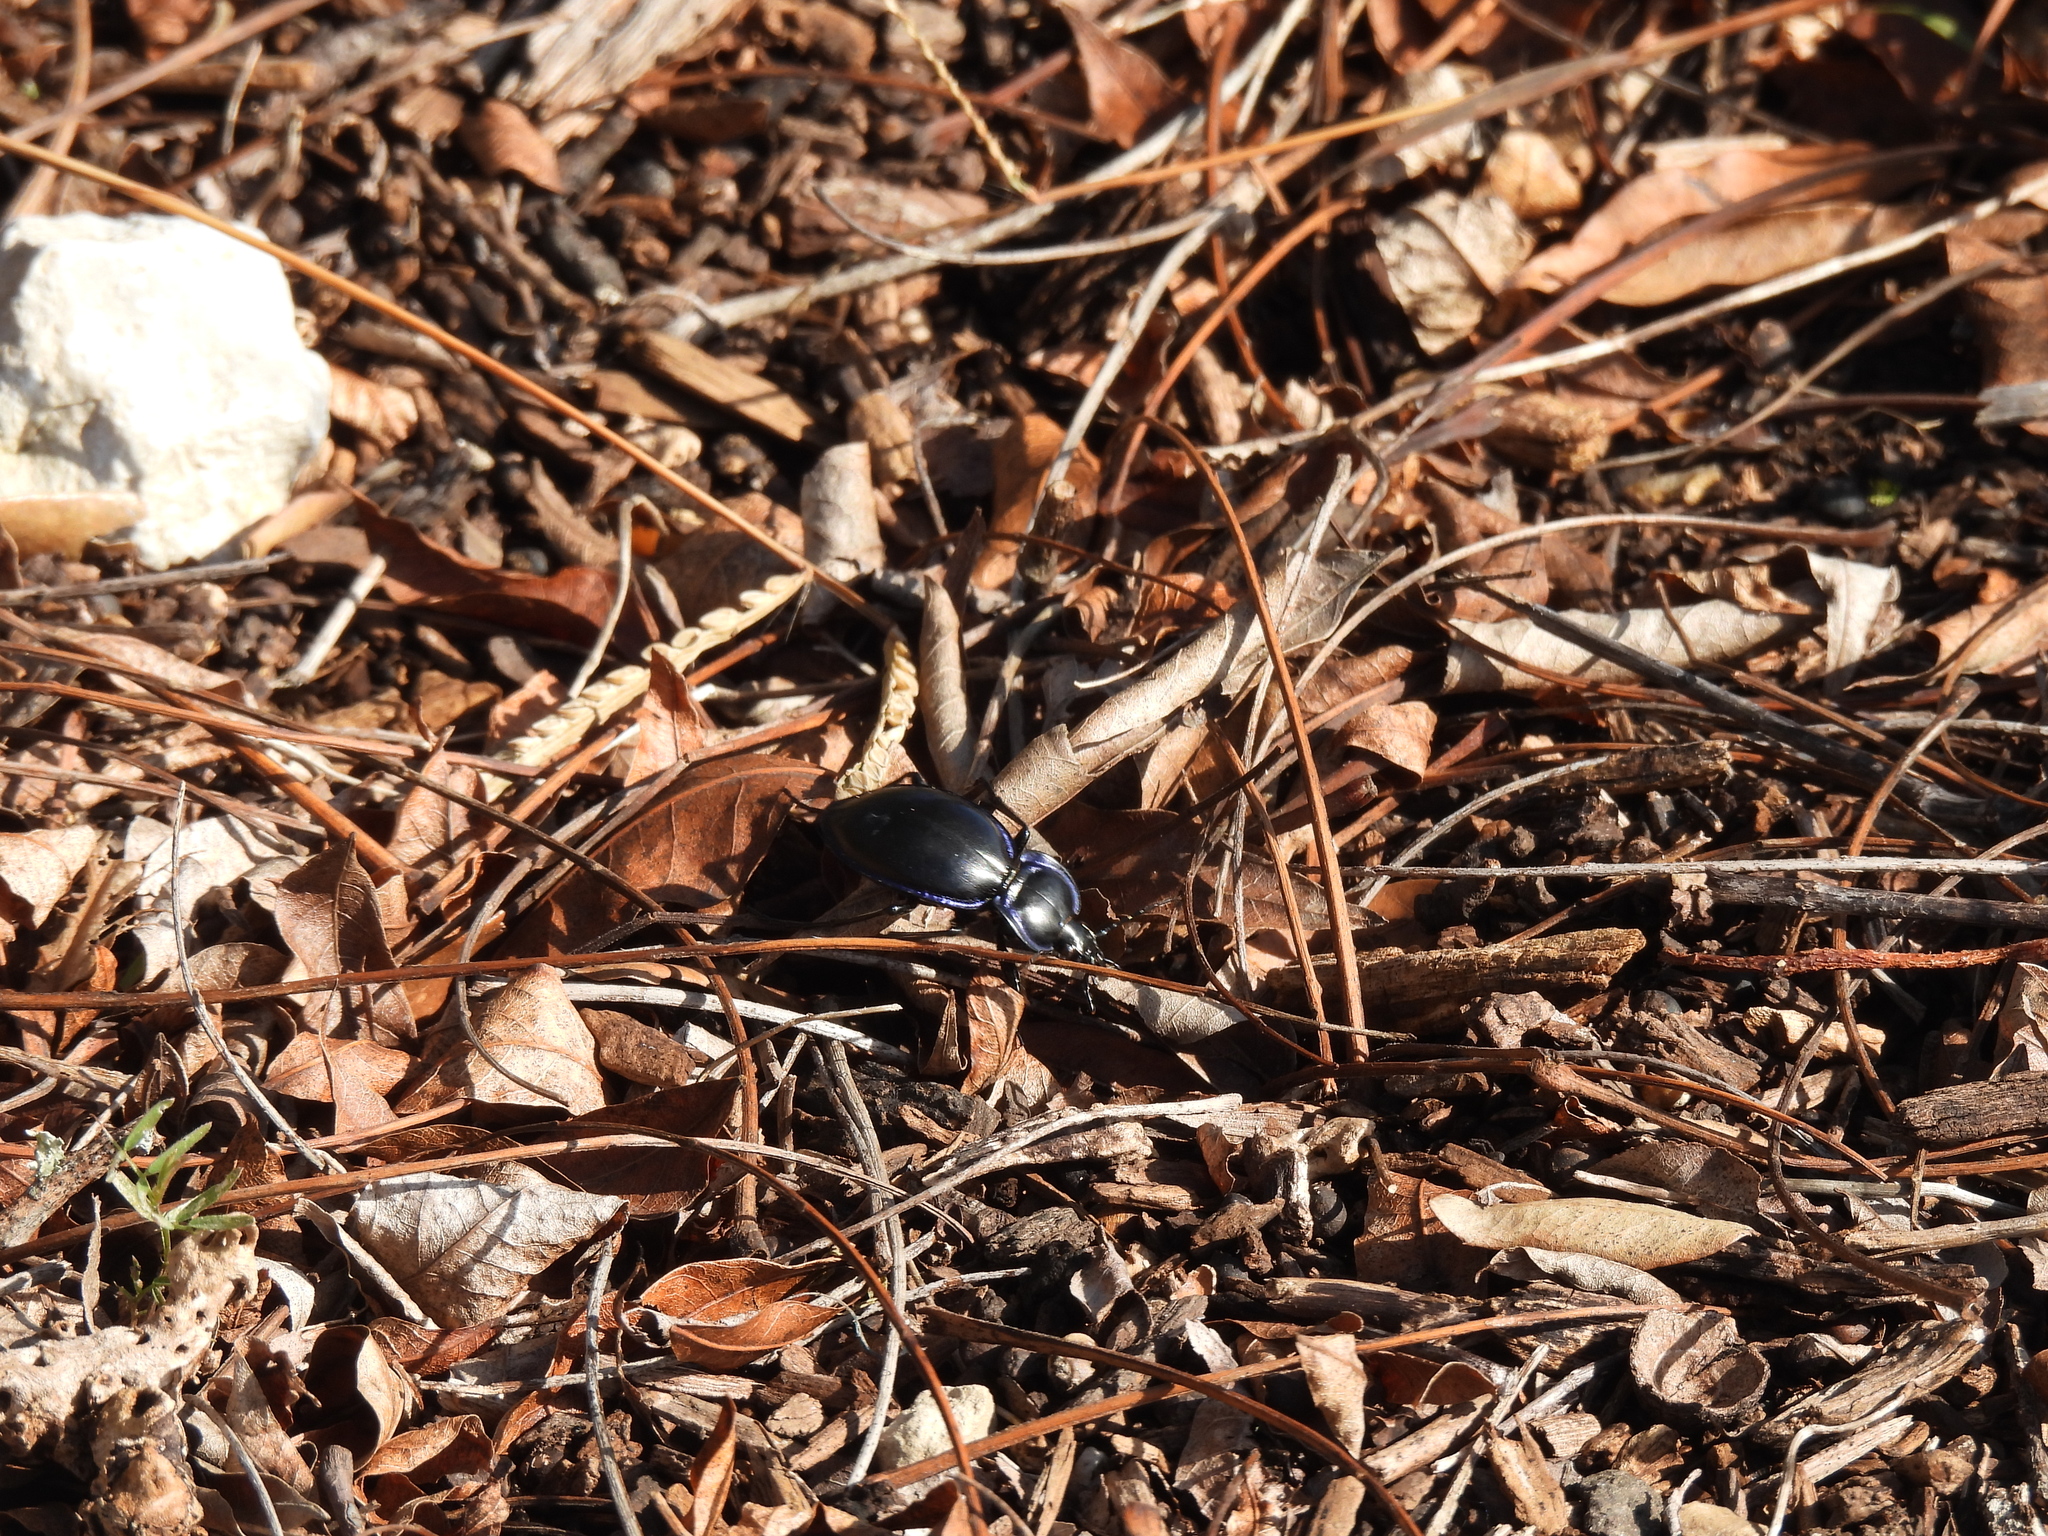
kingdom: Animalia
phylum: Arthropoda
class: Insecta
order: Coleoptera
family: Carabidae
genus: Carabus
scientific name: Carabus finitimus
